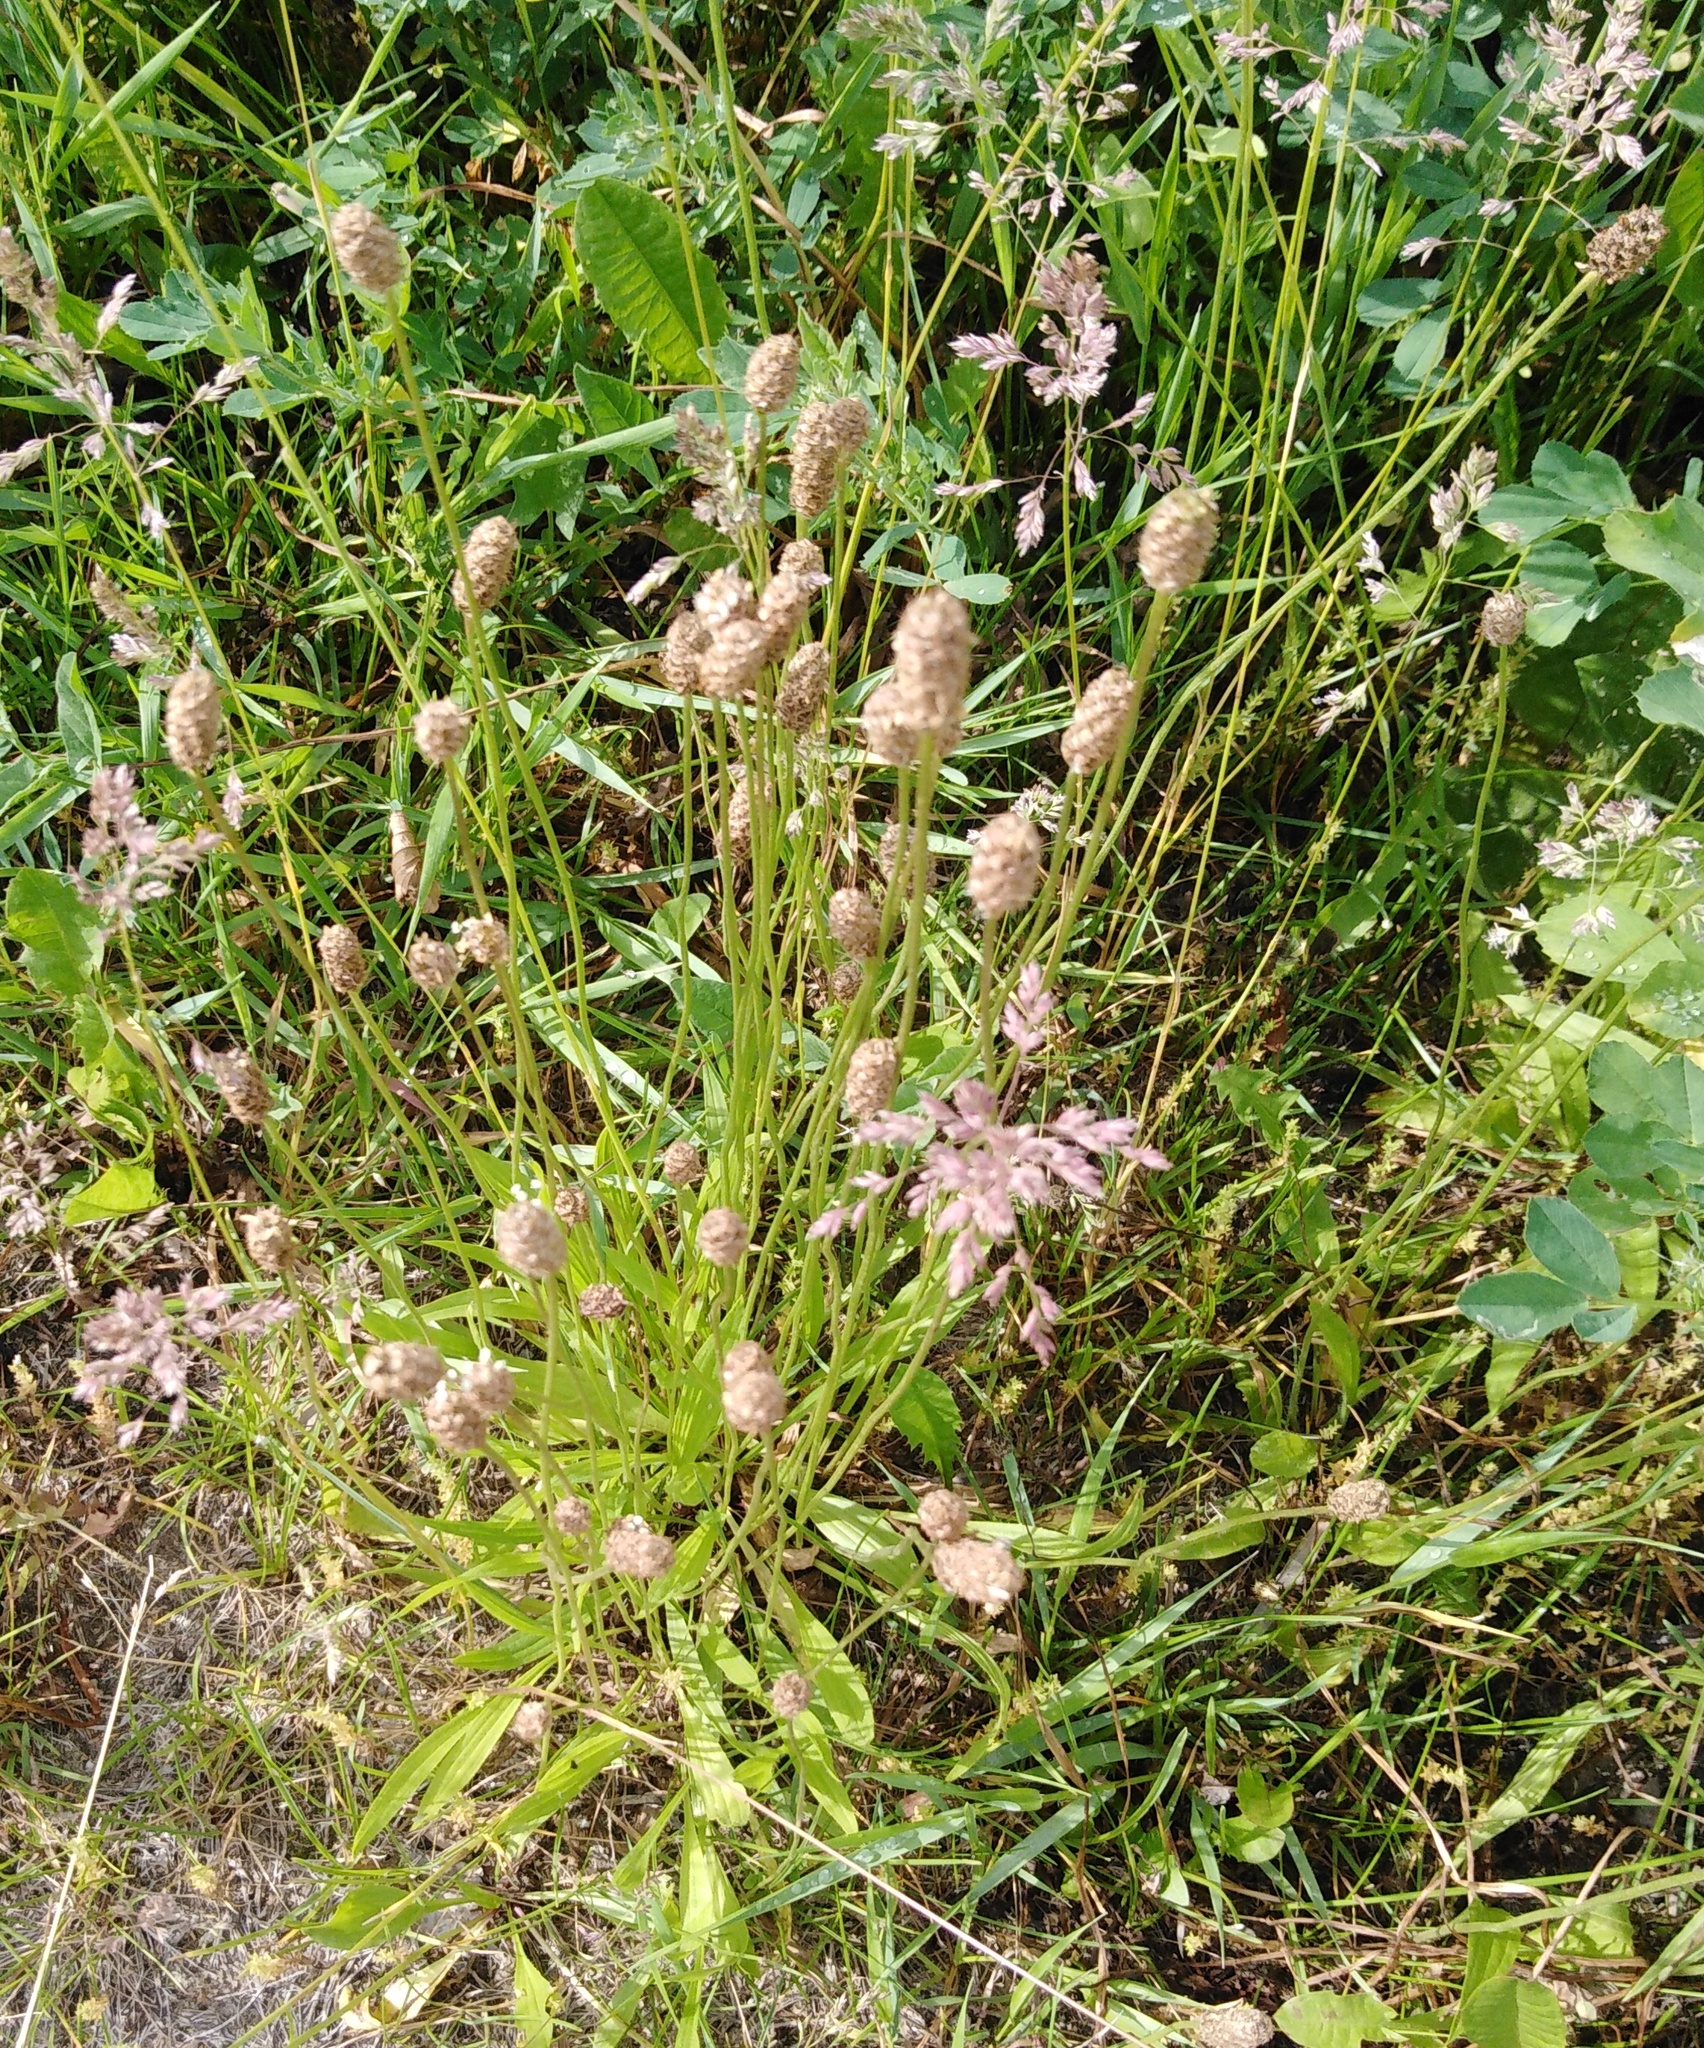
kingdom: Plantae
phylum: Tracheophyta
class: Magnoliopsida
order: Lamiales
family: Plantaginaceae
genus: Plantago
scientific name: Plantago lanceolata
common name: Ribwort plantain
